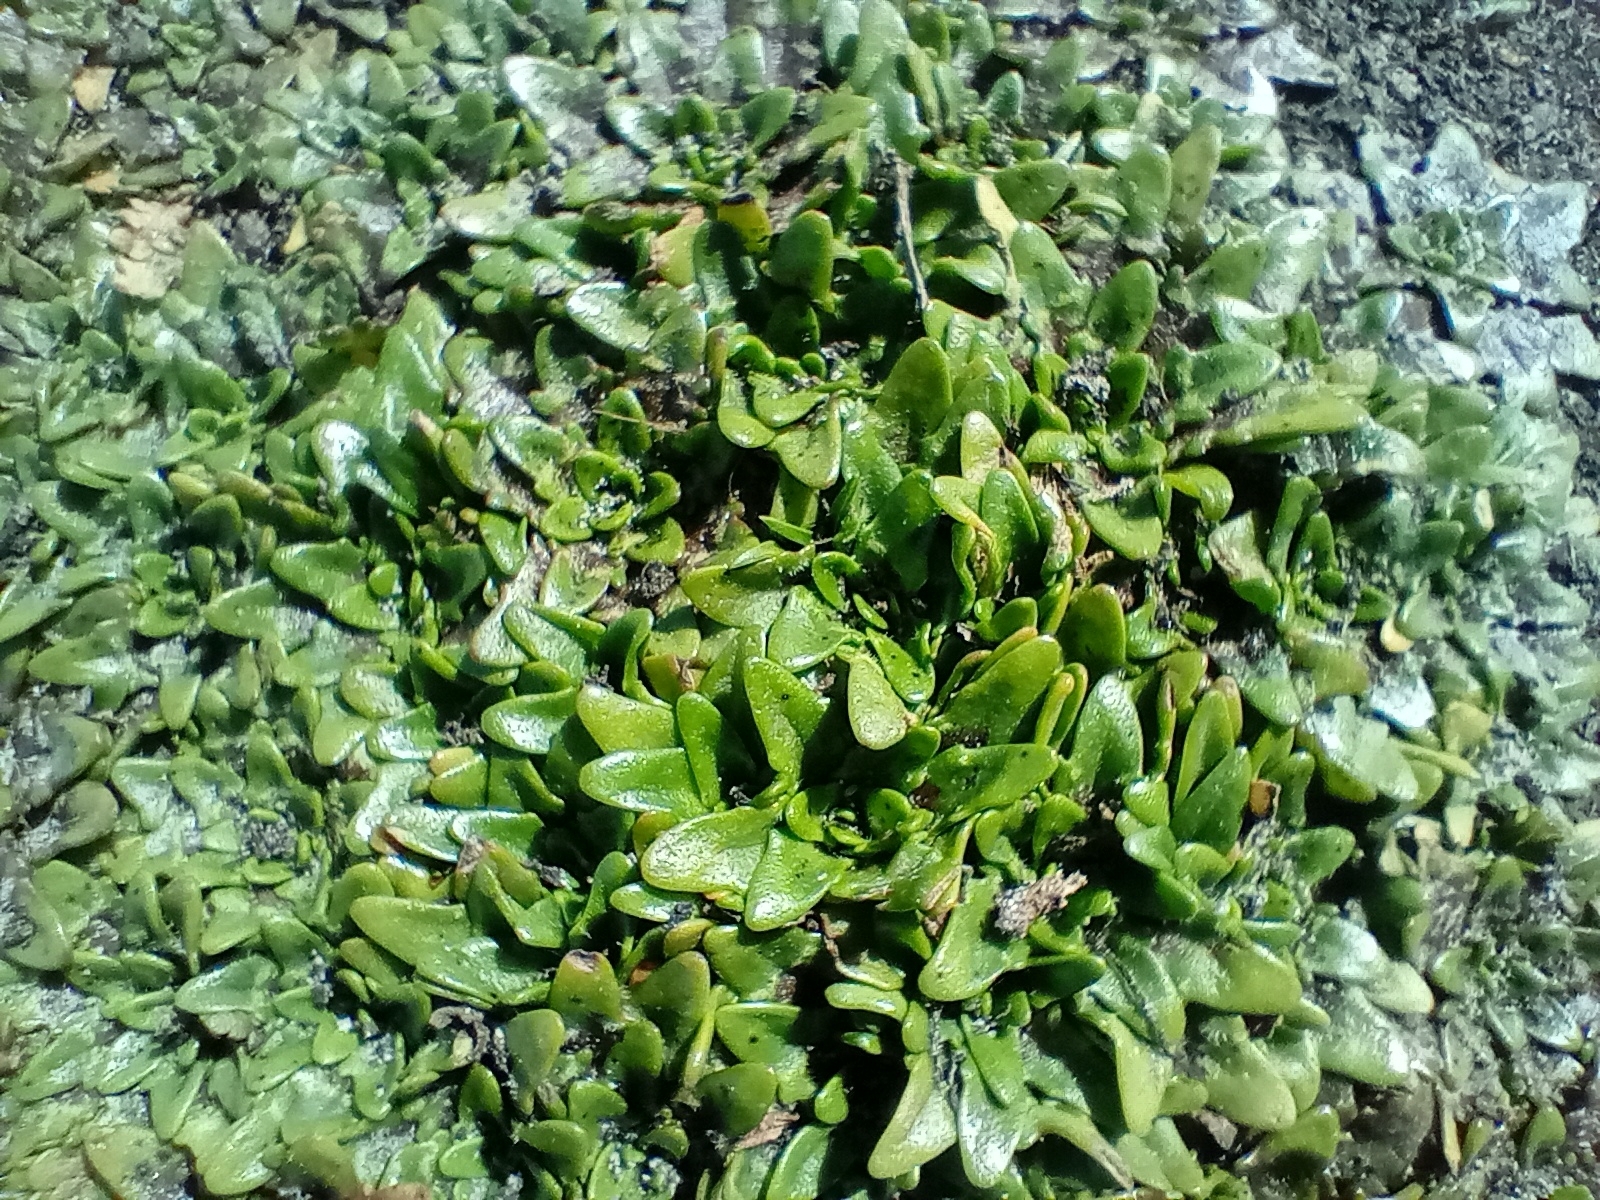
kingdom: Plantae
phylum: Tracheophyta
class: Magnoliopsida
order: Lamiales
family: Plantaginaceae
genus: Plantago
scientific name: Plantago triandra
